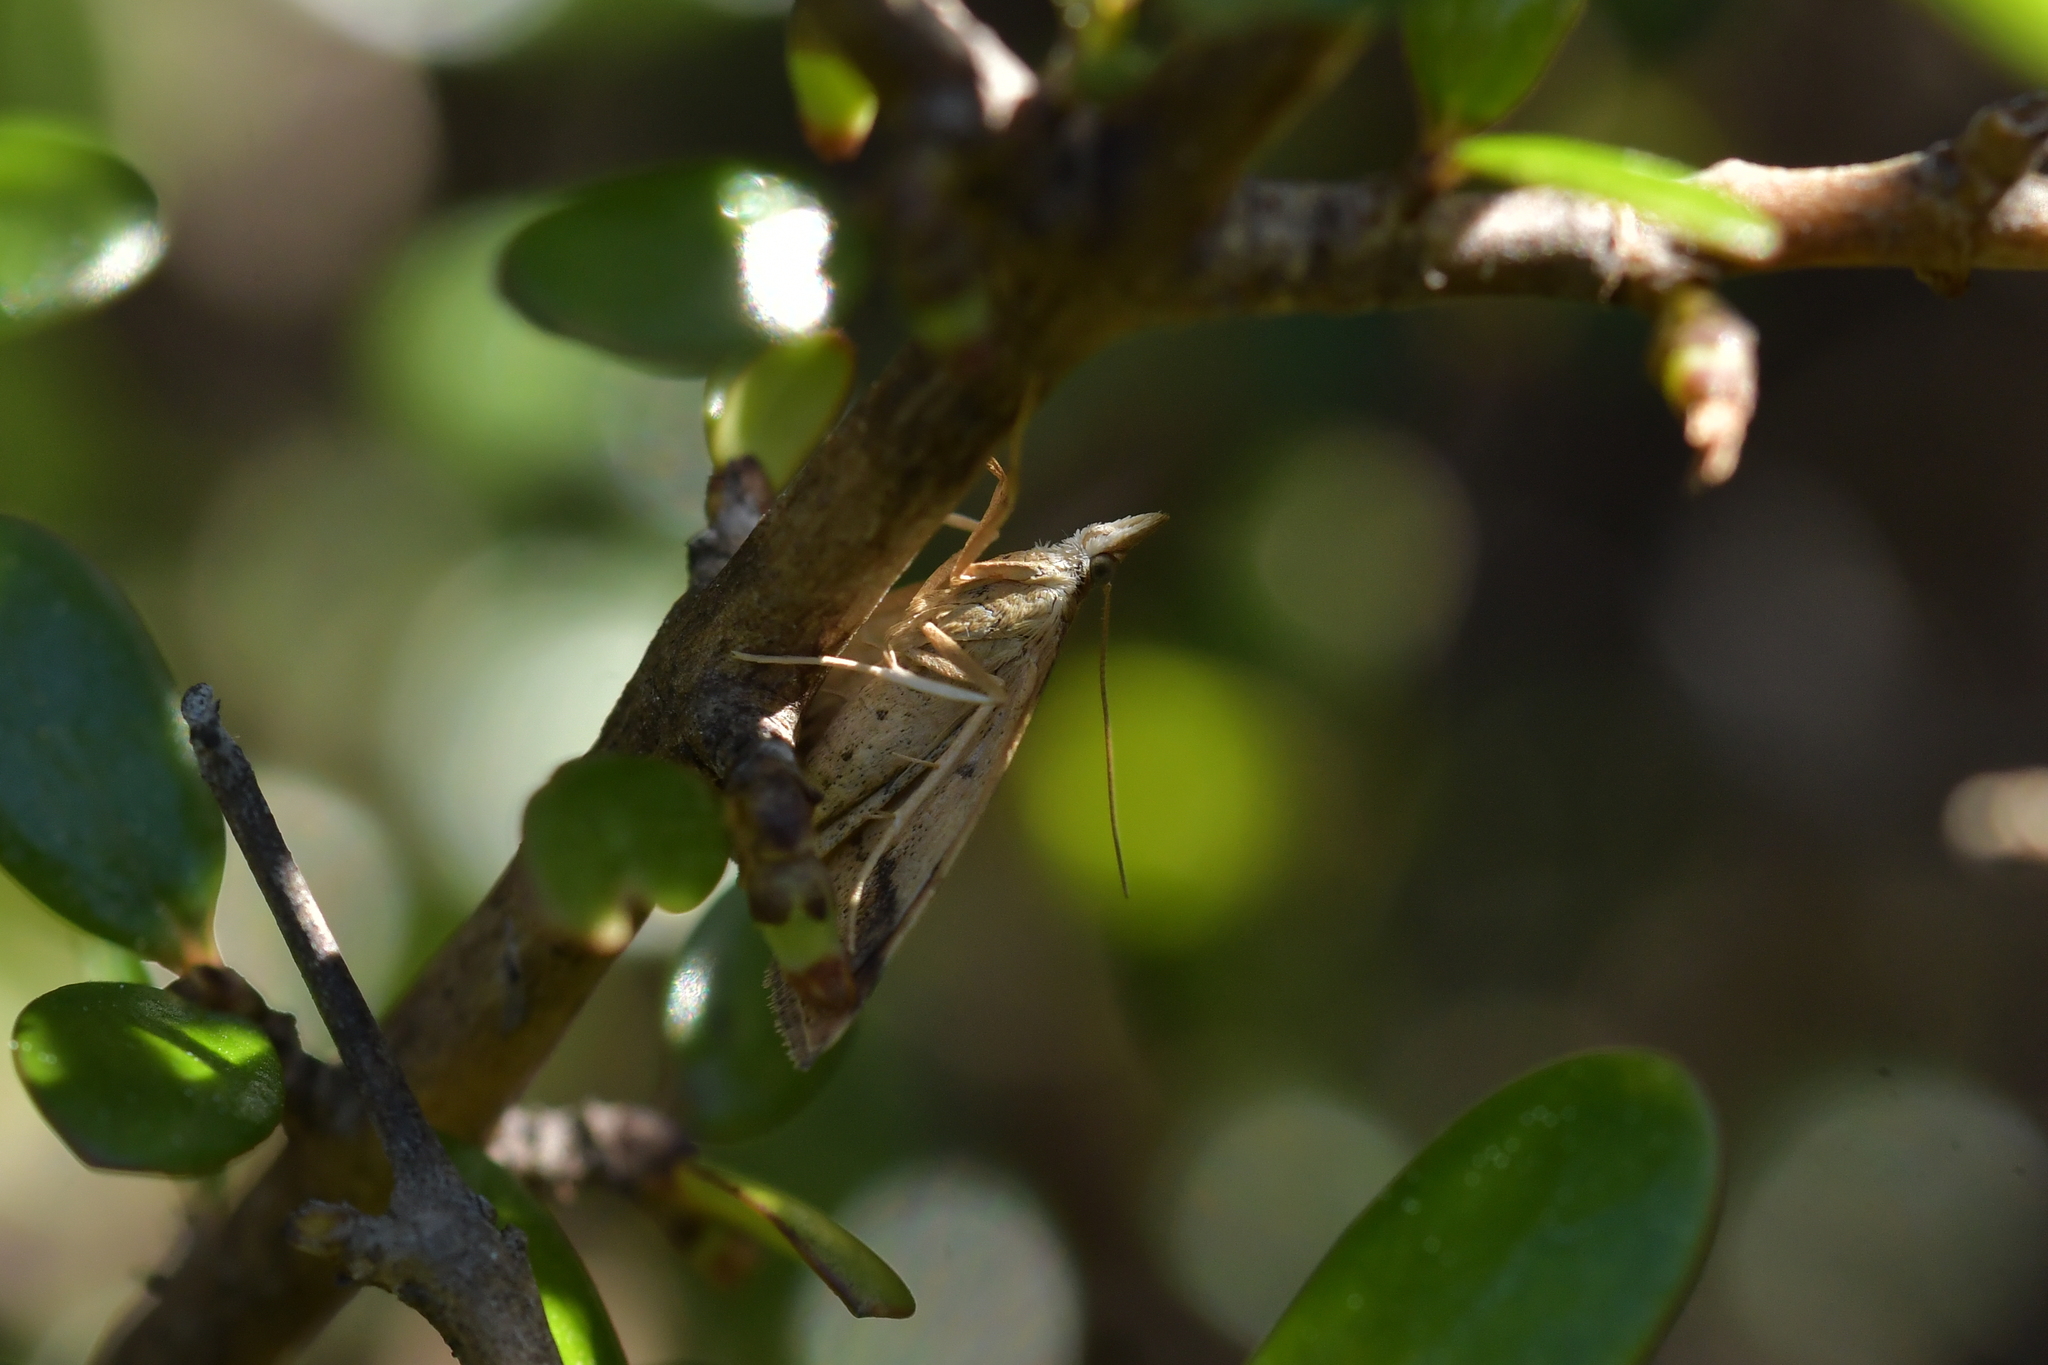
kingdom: Animalia
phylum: Arthropoda
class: Insecta
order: Lepidoptera
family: Crambidae
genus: Udea
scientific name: Udea Mnesictena flavidalis
